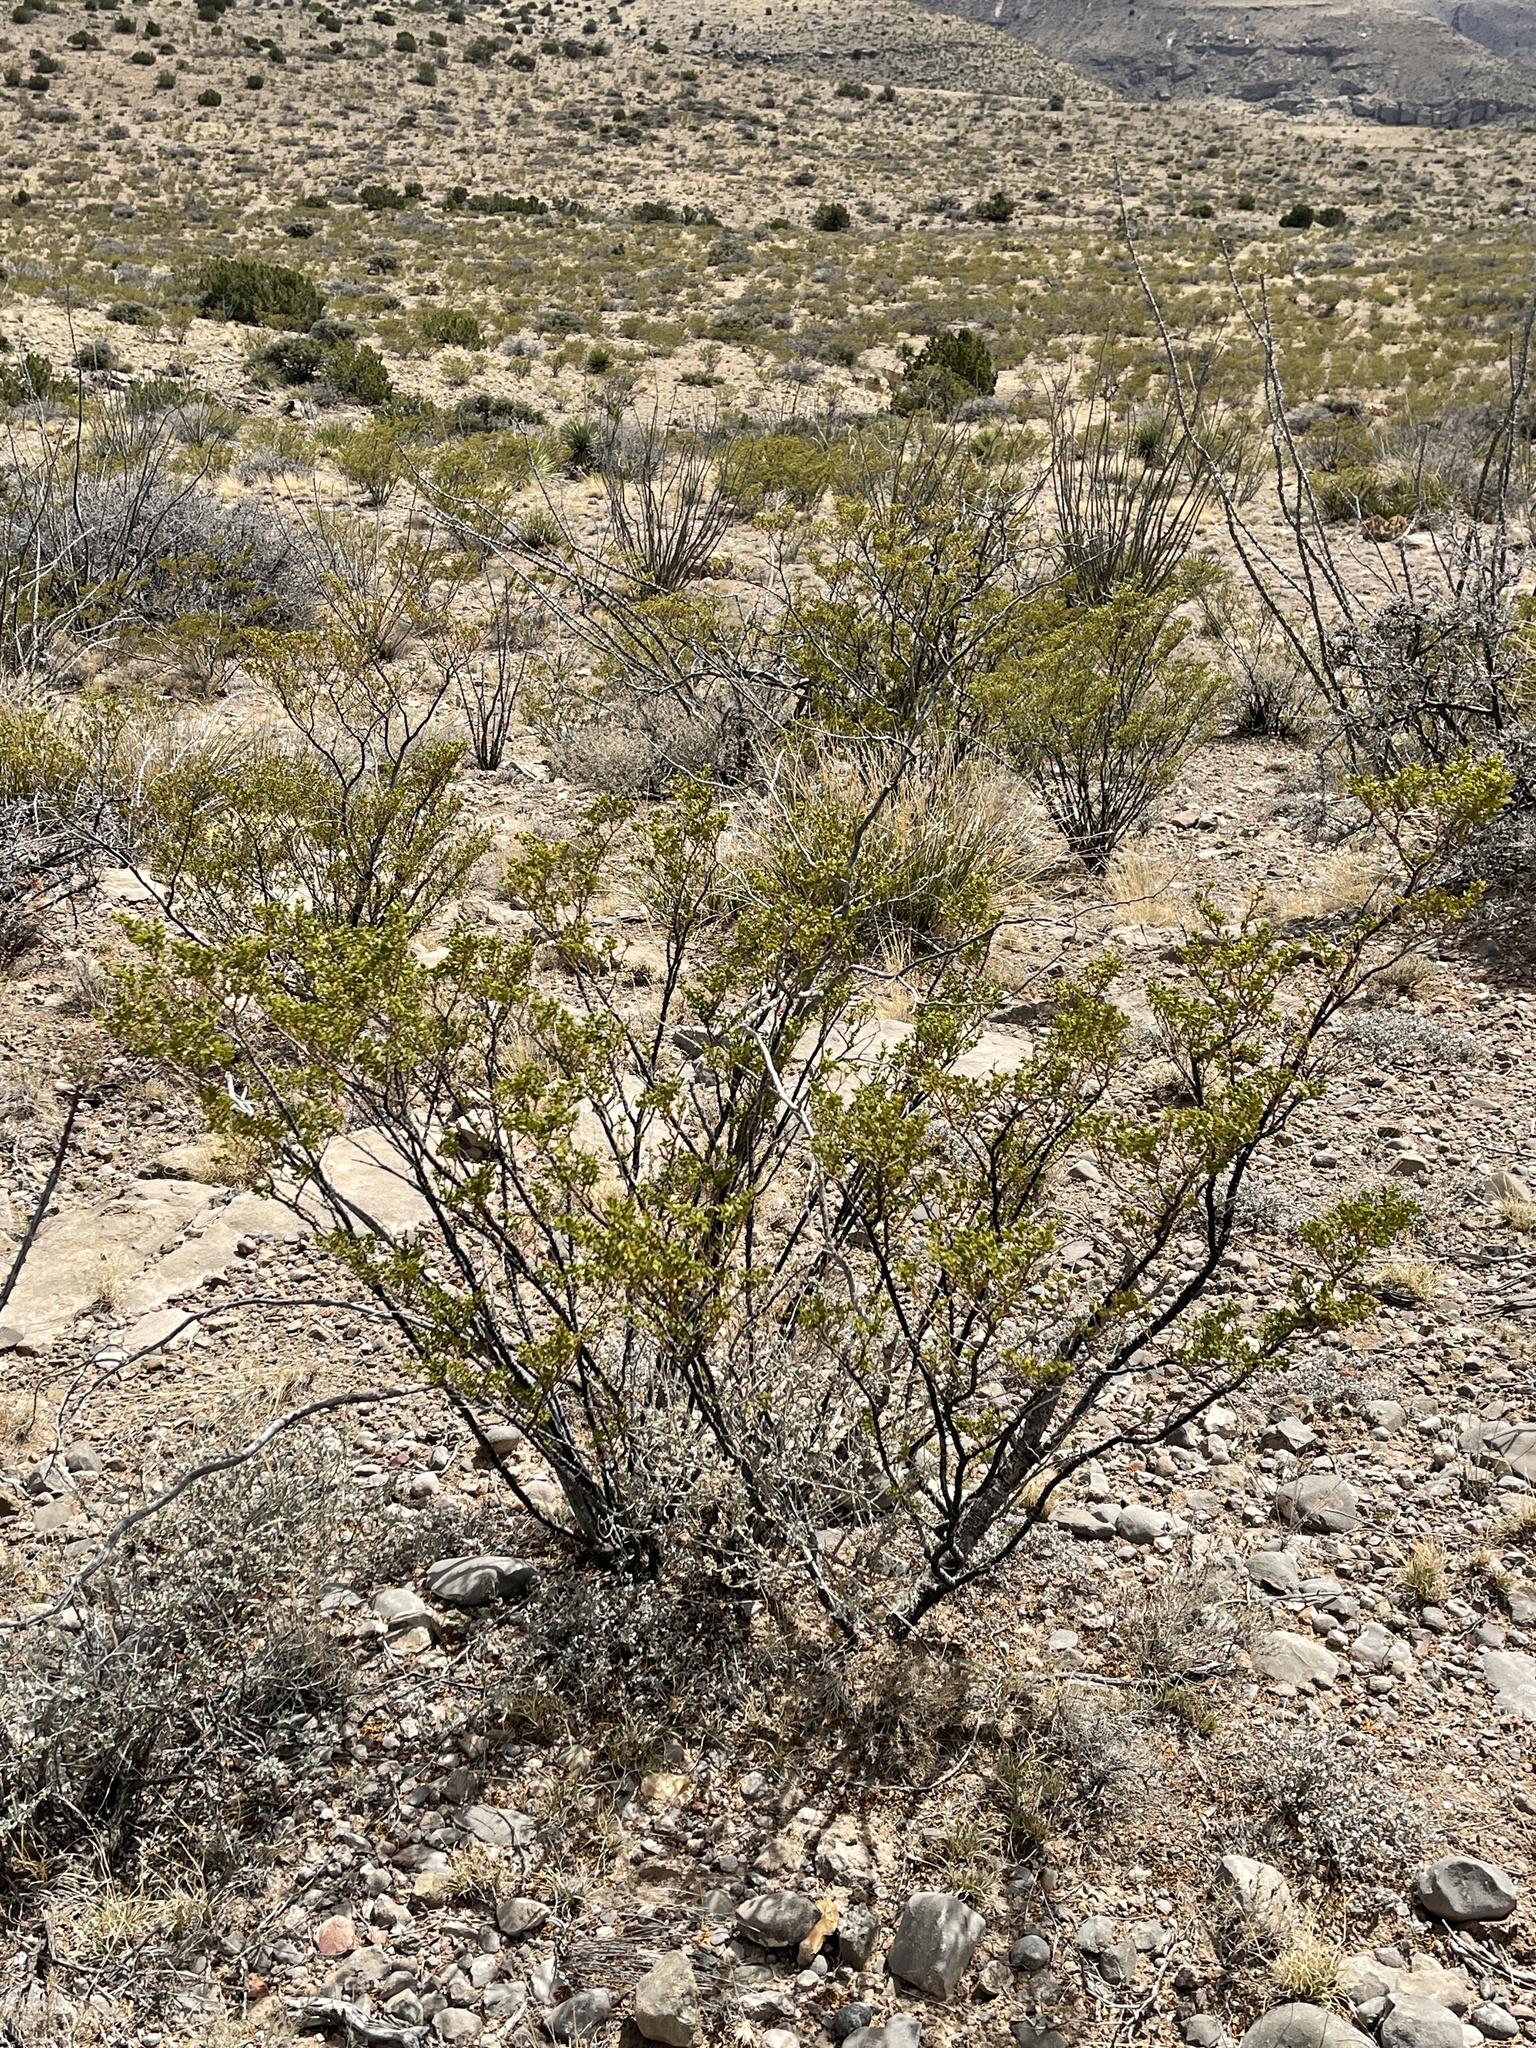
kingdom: Plantae
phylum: Tracheophyta
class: Magnoliopsida
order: Zygophyllales
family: Zygophyllaceae
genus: Larrea
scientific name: Larrea tridentata
